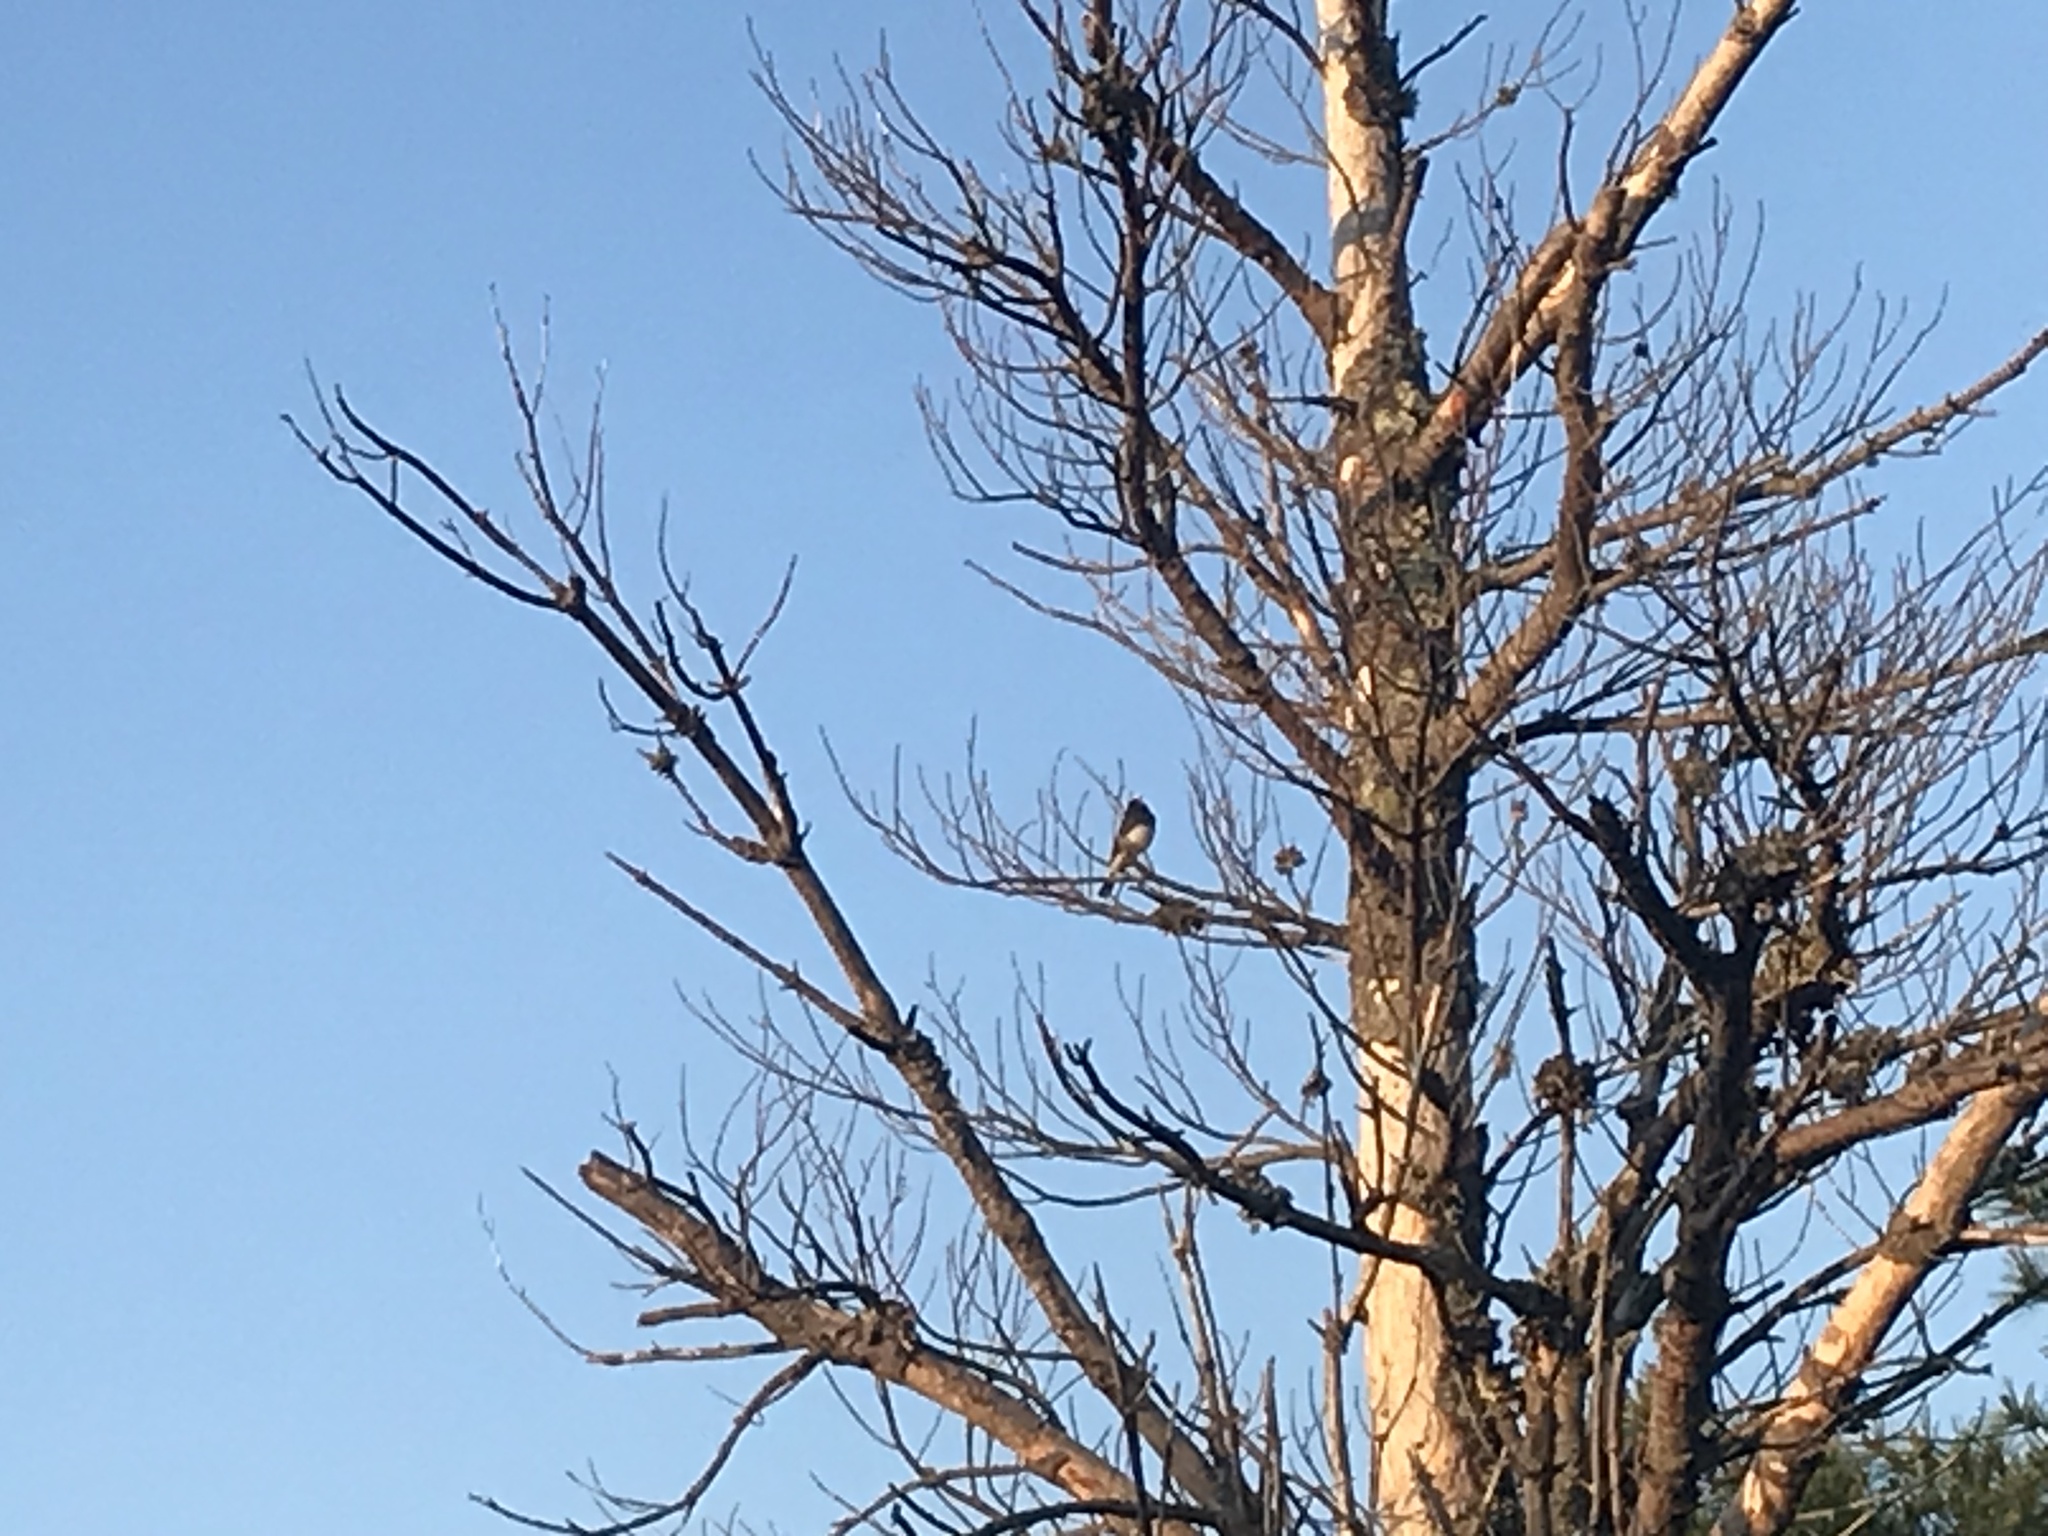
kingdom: Animalia
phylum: Chordata
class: Aves
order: Passeriformes
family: Passerellidae
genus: Junco
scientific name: Junco hyemalis
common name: Dark-eyed junco
